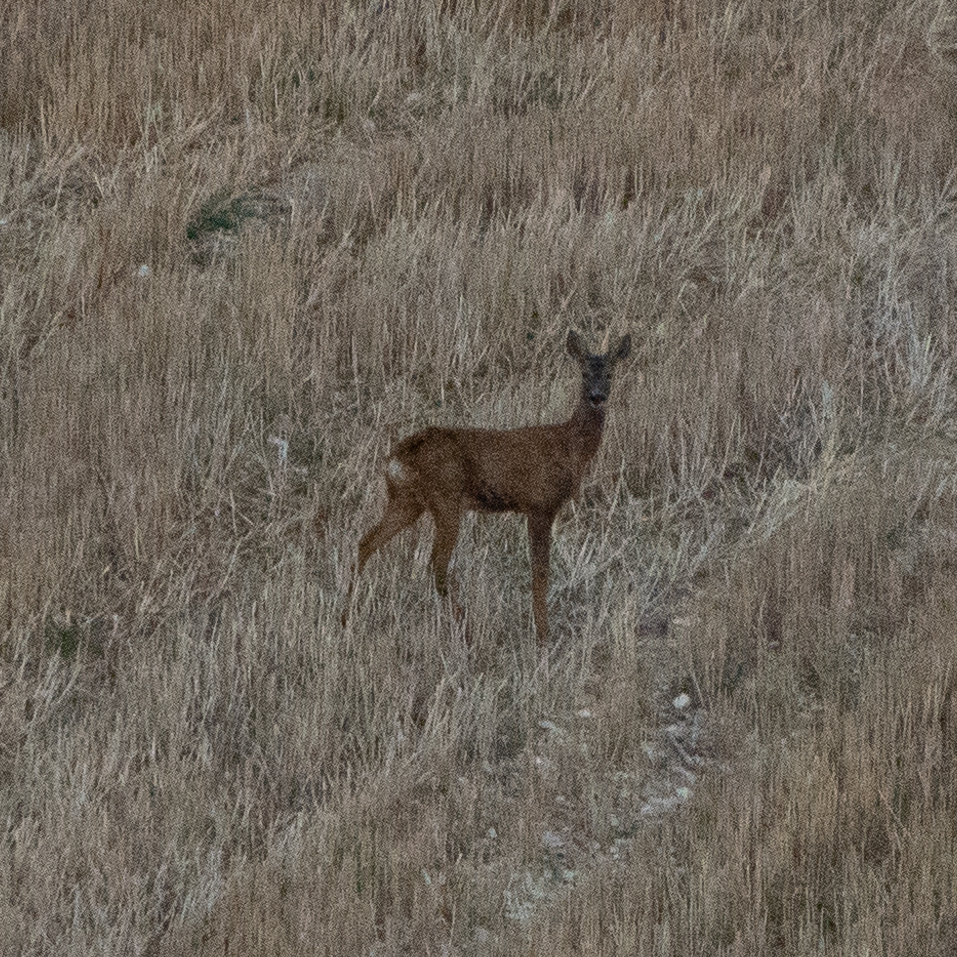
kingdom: Animalia
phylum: Chordata
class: Mammalia
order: Artiodactyla
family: Cervidae
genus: Capreolus
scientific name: Capreolus capreolus
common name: Western roe deer
